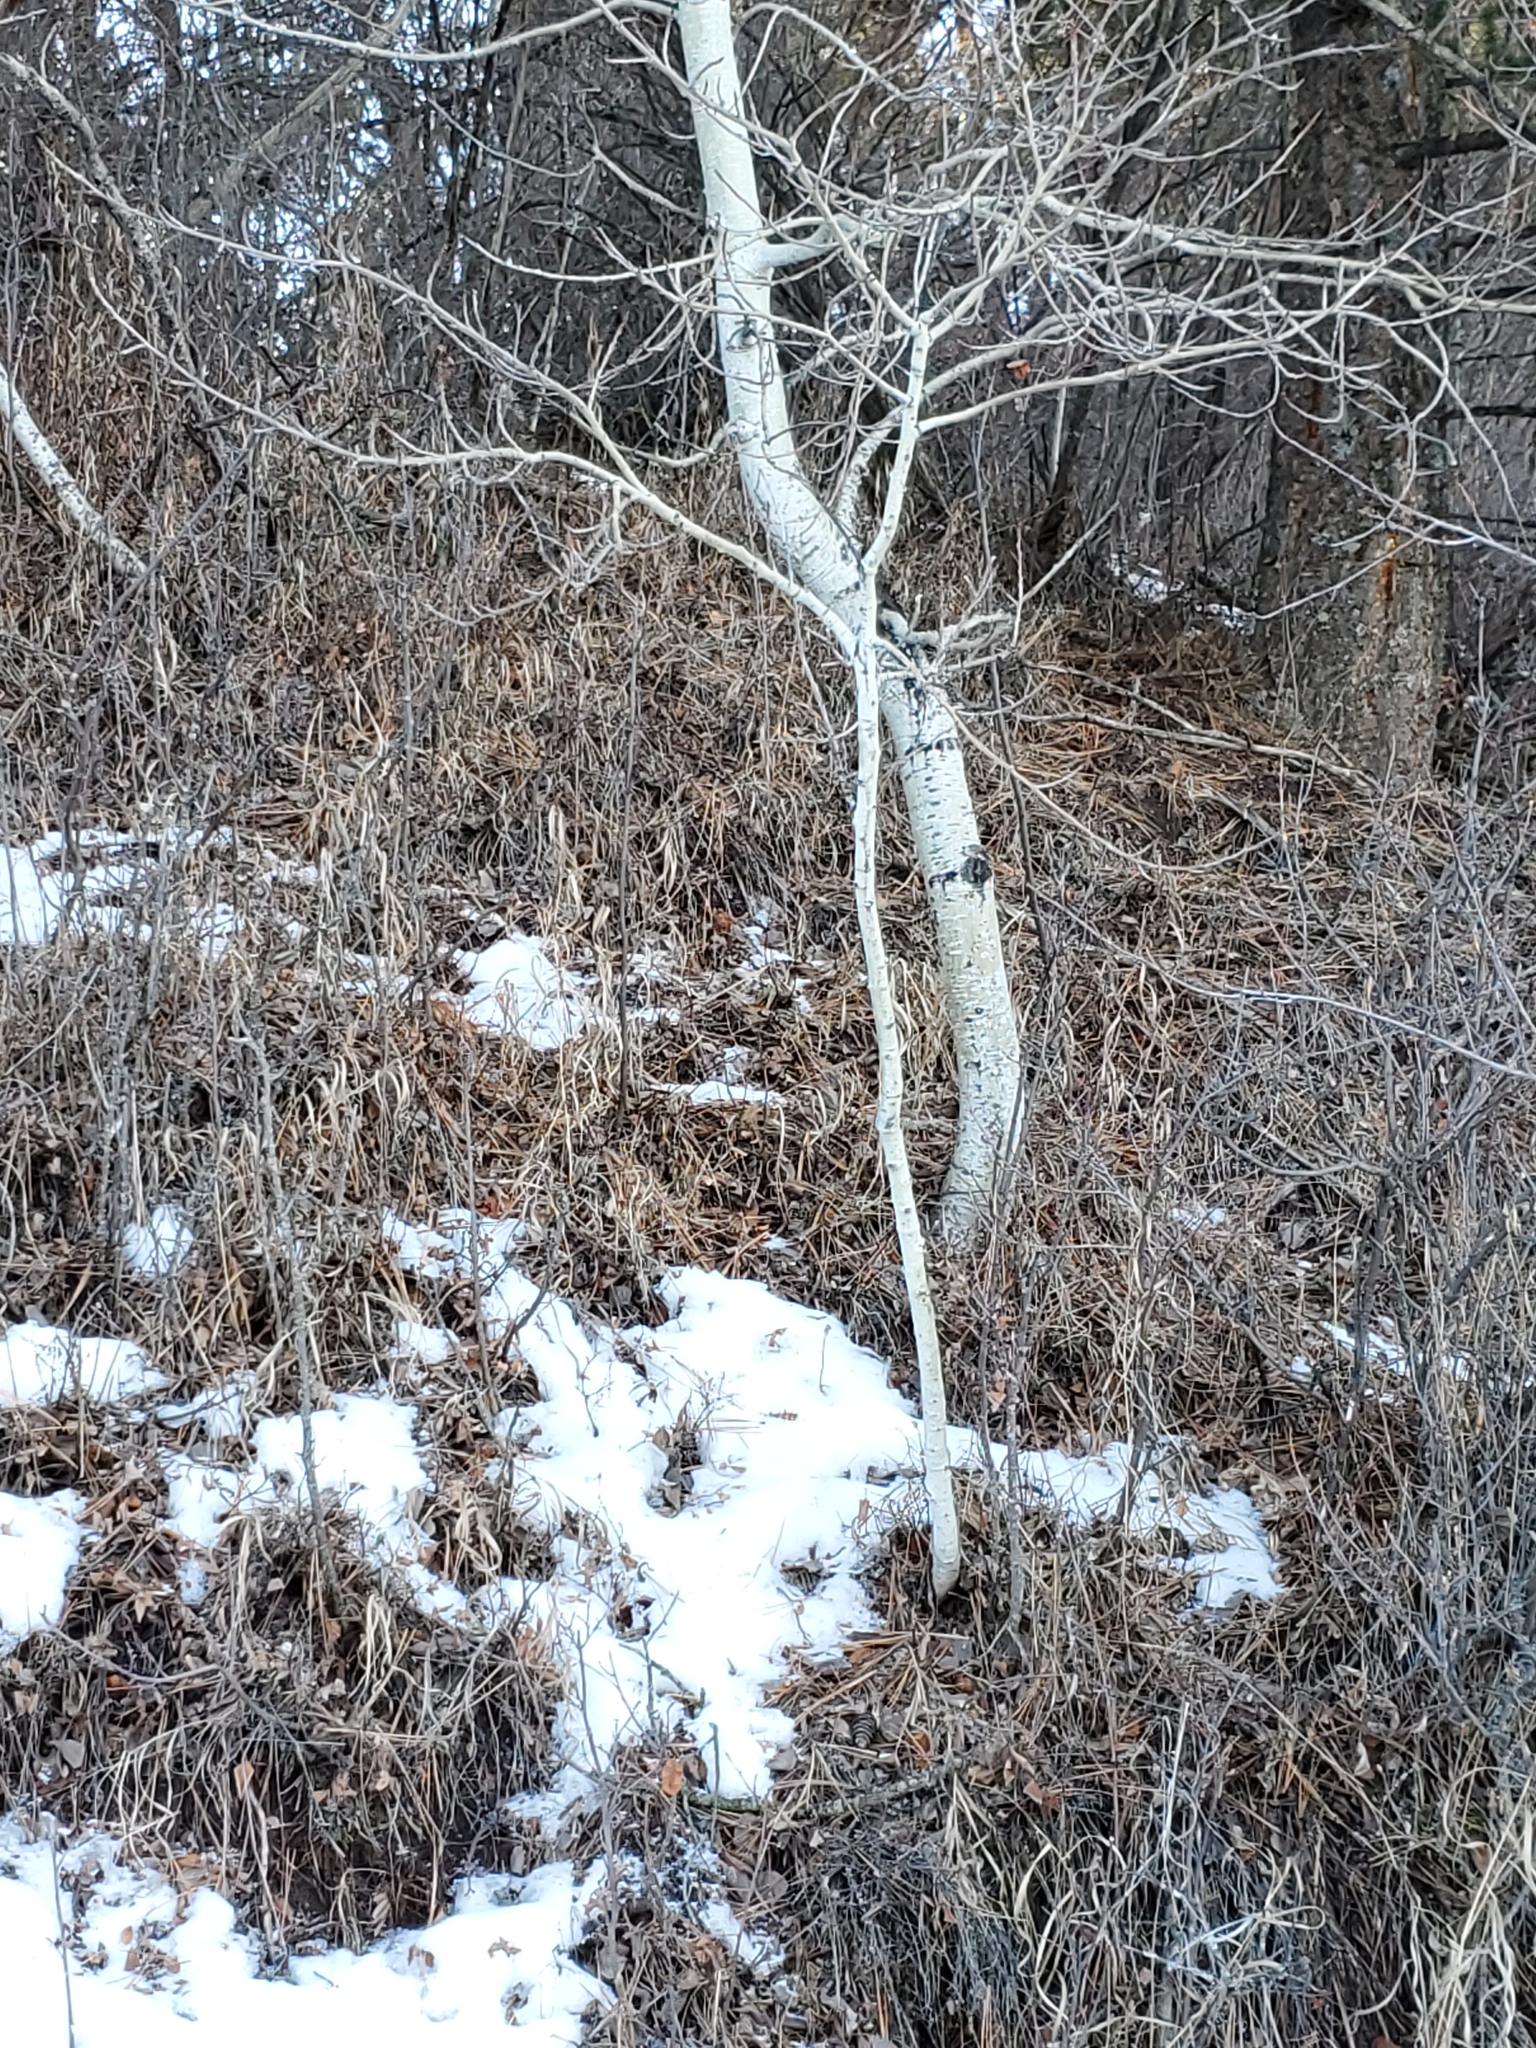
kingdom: Plantae
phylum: Tracheophyta
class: Magnoliopsida
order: Malpighiales
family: Salicaceae
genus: Populus
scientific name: Populus tremuloides
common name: Quaking aspen
